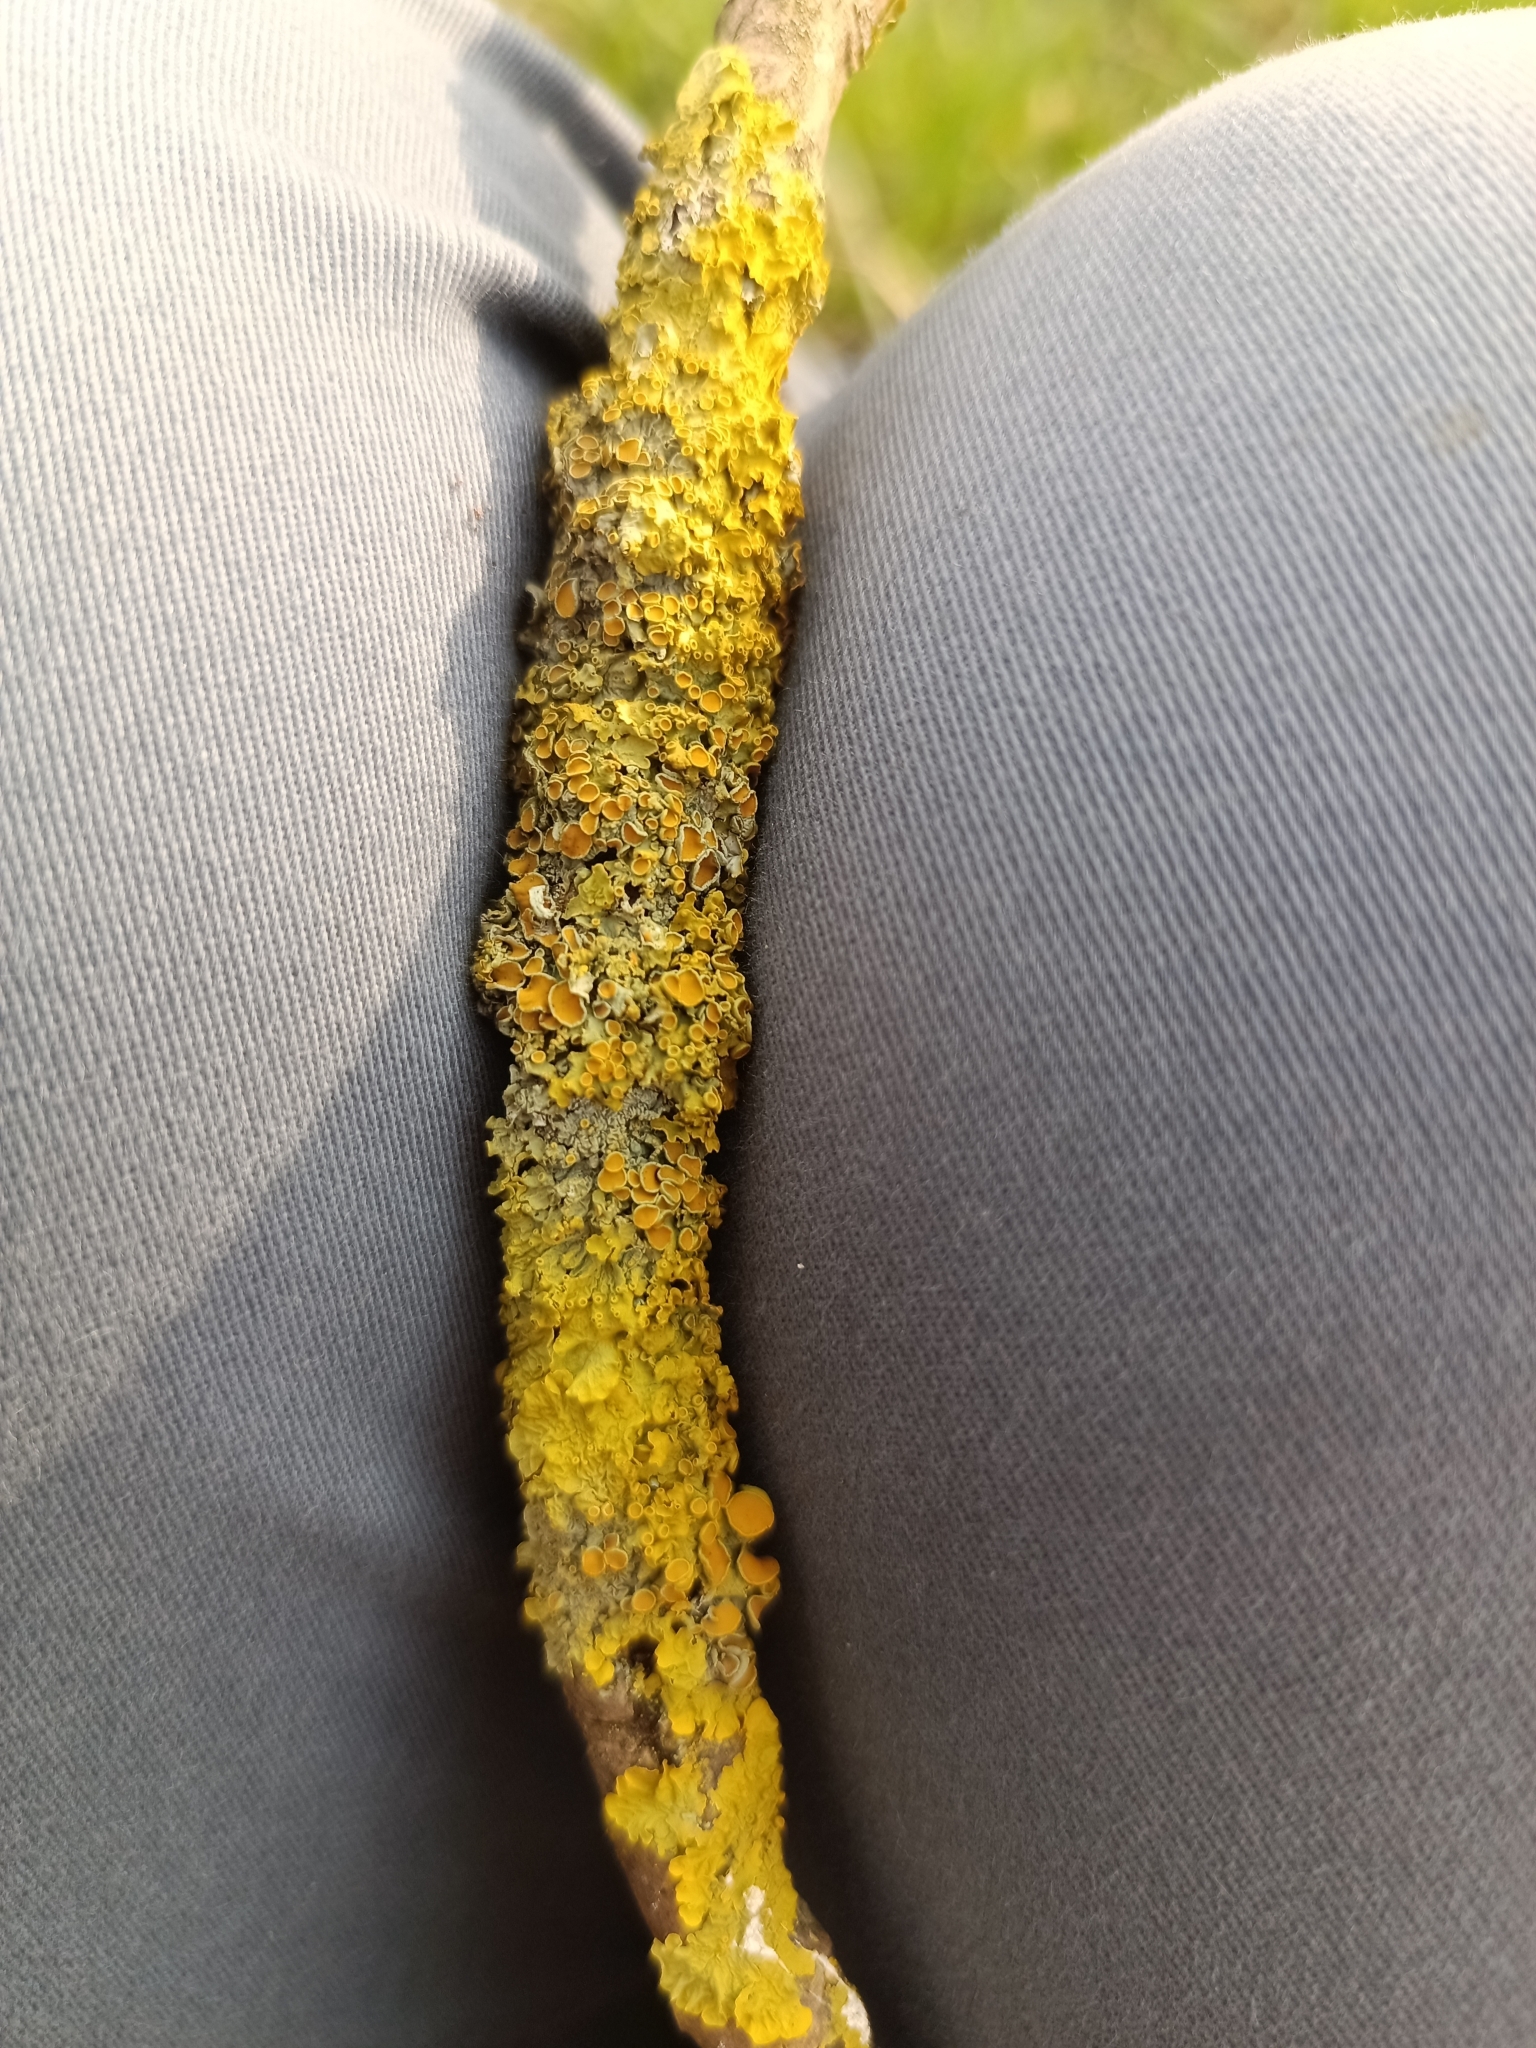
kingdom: Fungi
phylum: Ascomycota
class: Lecanoromycetes
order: Teloschistales
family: Teloschistaceae
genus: Xanthoria
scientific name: Xanthoria parietina
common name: Common orange lichen
